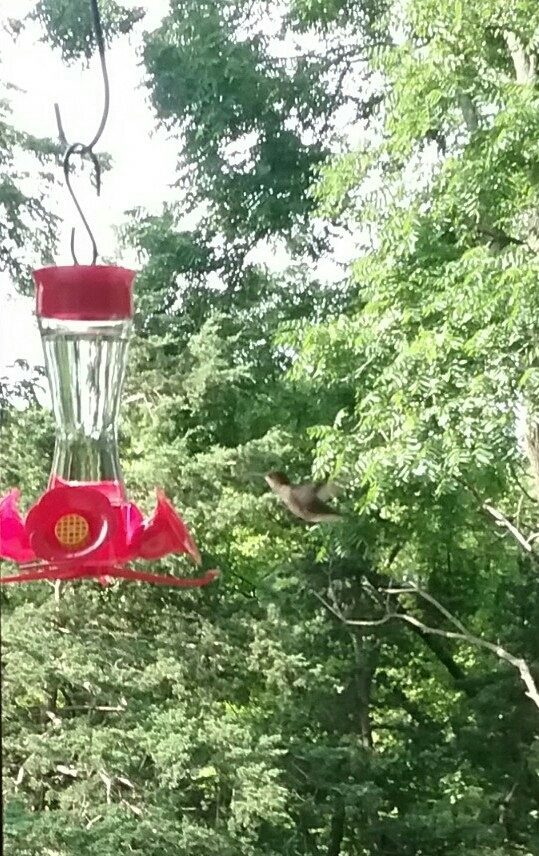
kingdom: Animalia
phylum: Chordata
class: Aves
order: Apodiformes
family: Trochilidae
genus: Archilochus
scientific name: Archilochus colubris
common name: Ruby-throated hummingbird
